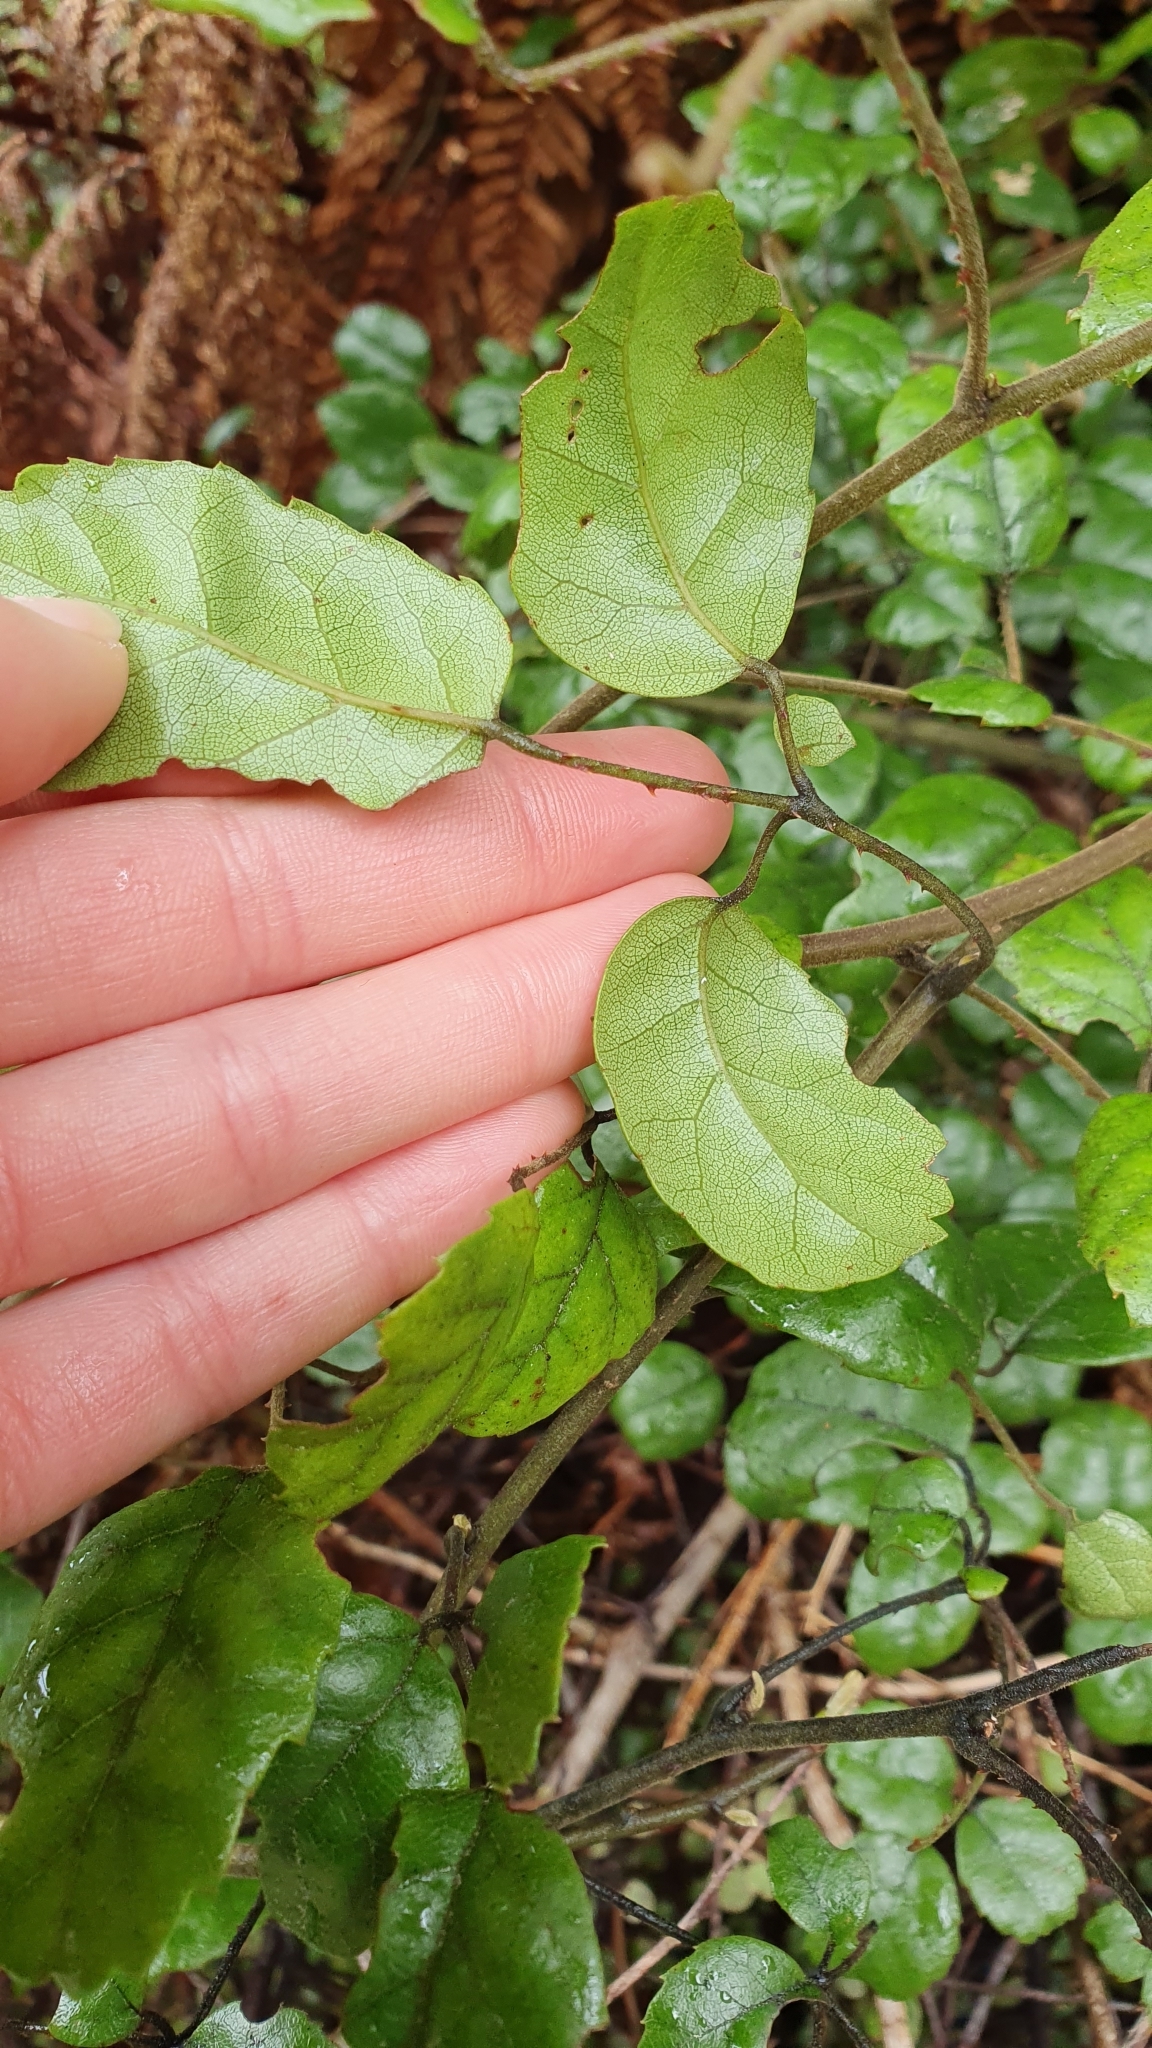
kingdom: Plantae
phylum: Tracheophyta
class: Magnoliopsida
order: Rosales
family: Rosaceae
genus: Rubus
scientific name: Rubus australis
